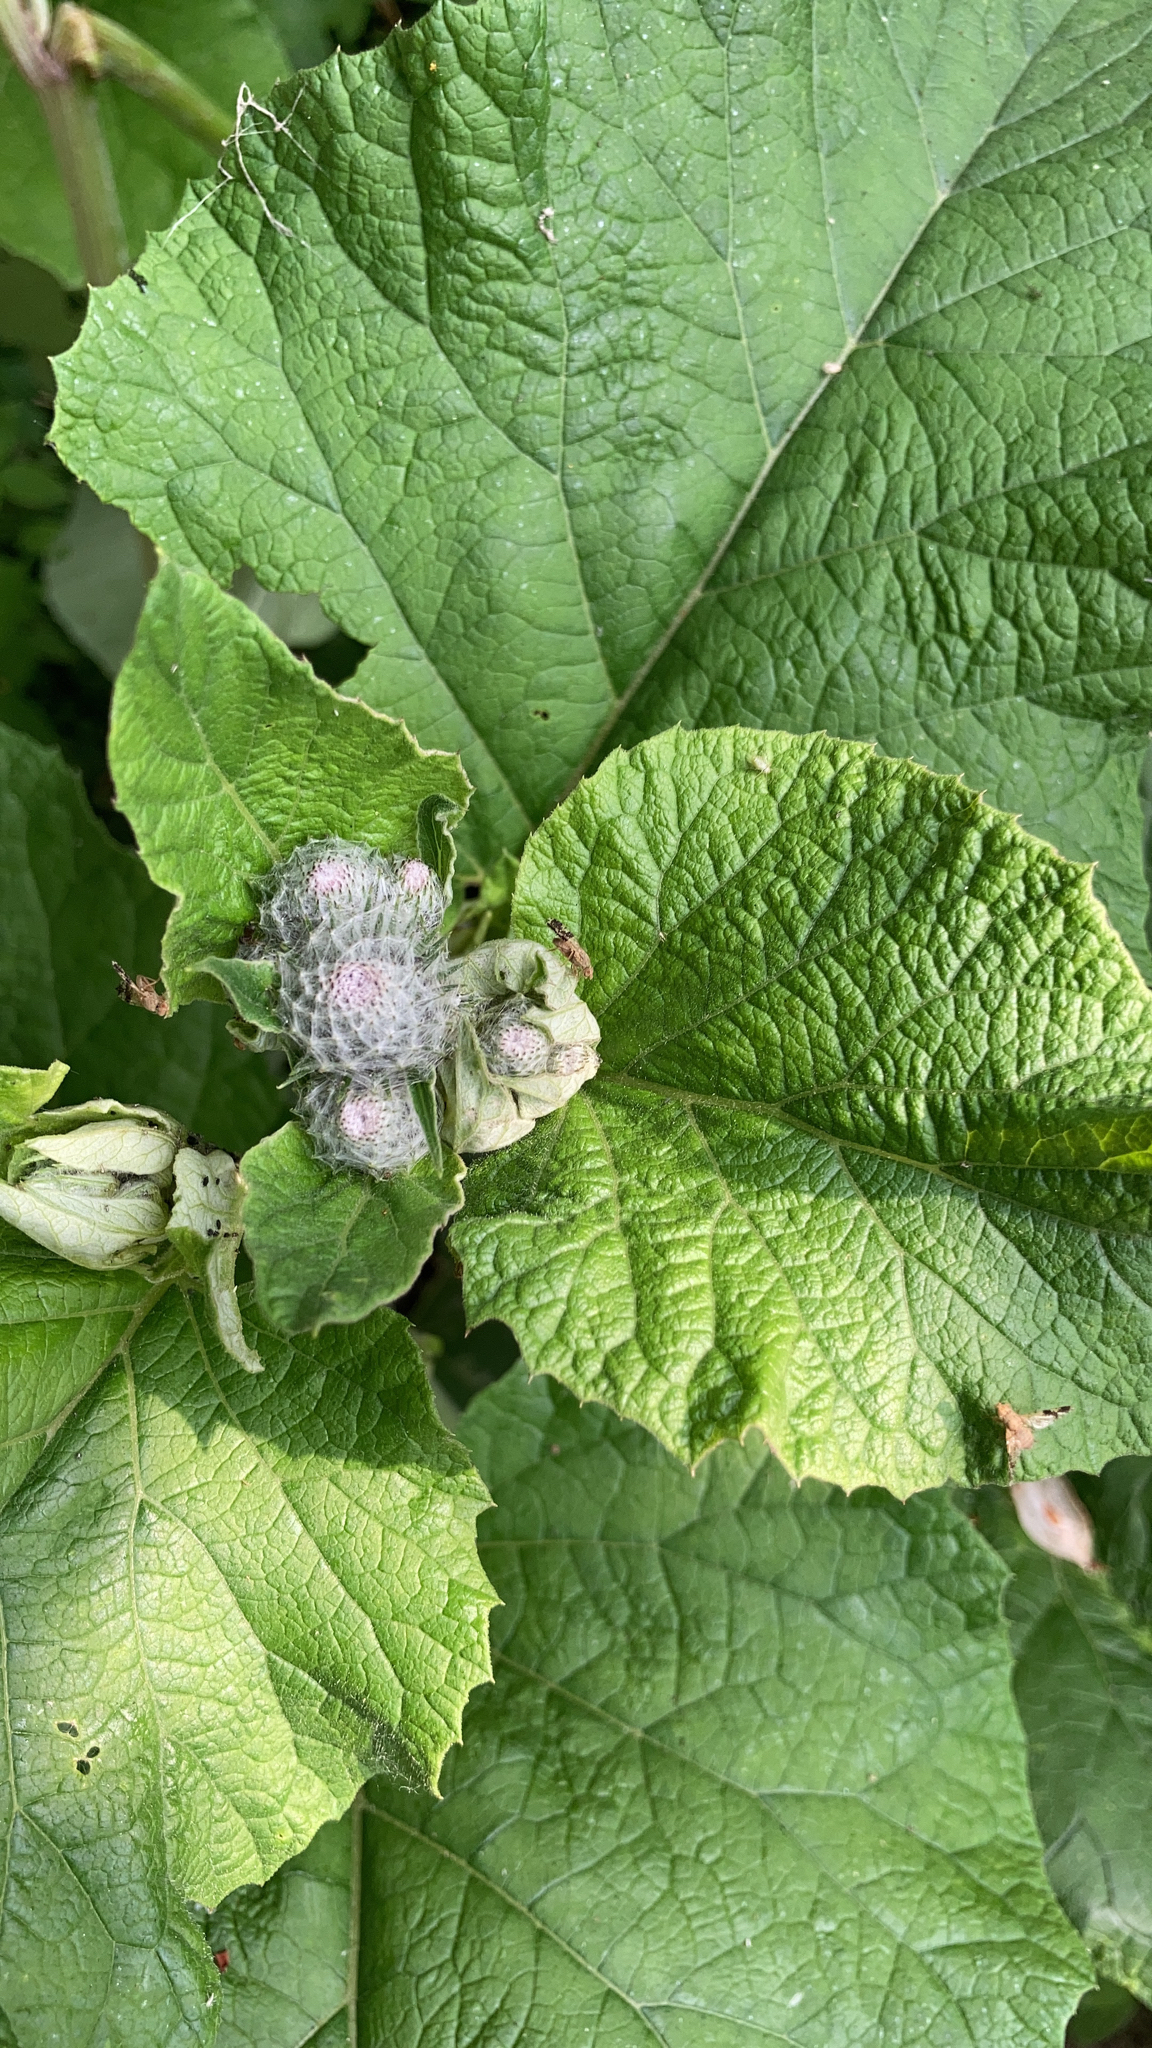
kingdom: Plantae
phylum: Tracheophyta
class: Magnoliopsida
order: Asterales
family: Asteraceae
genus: Arctium
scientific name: Arctium tomentosum
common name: Woolly burdock
